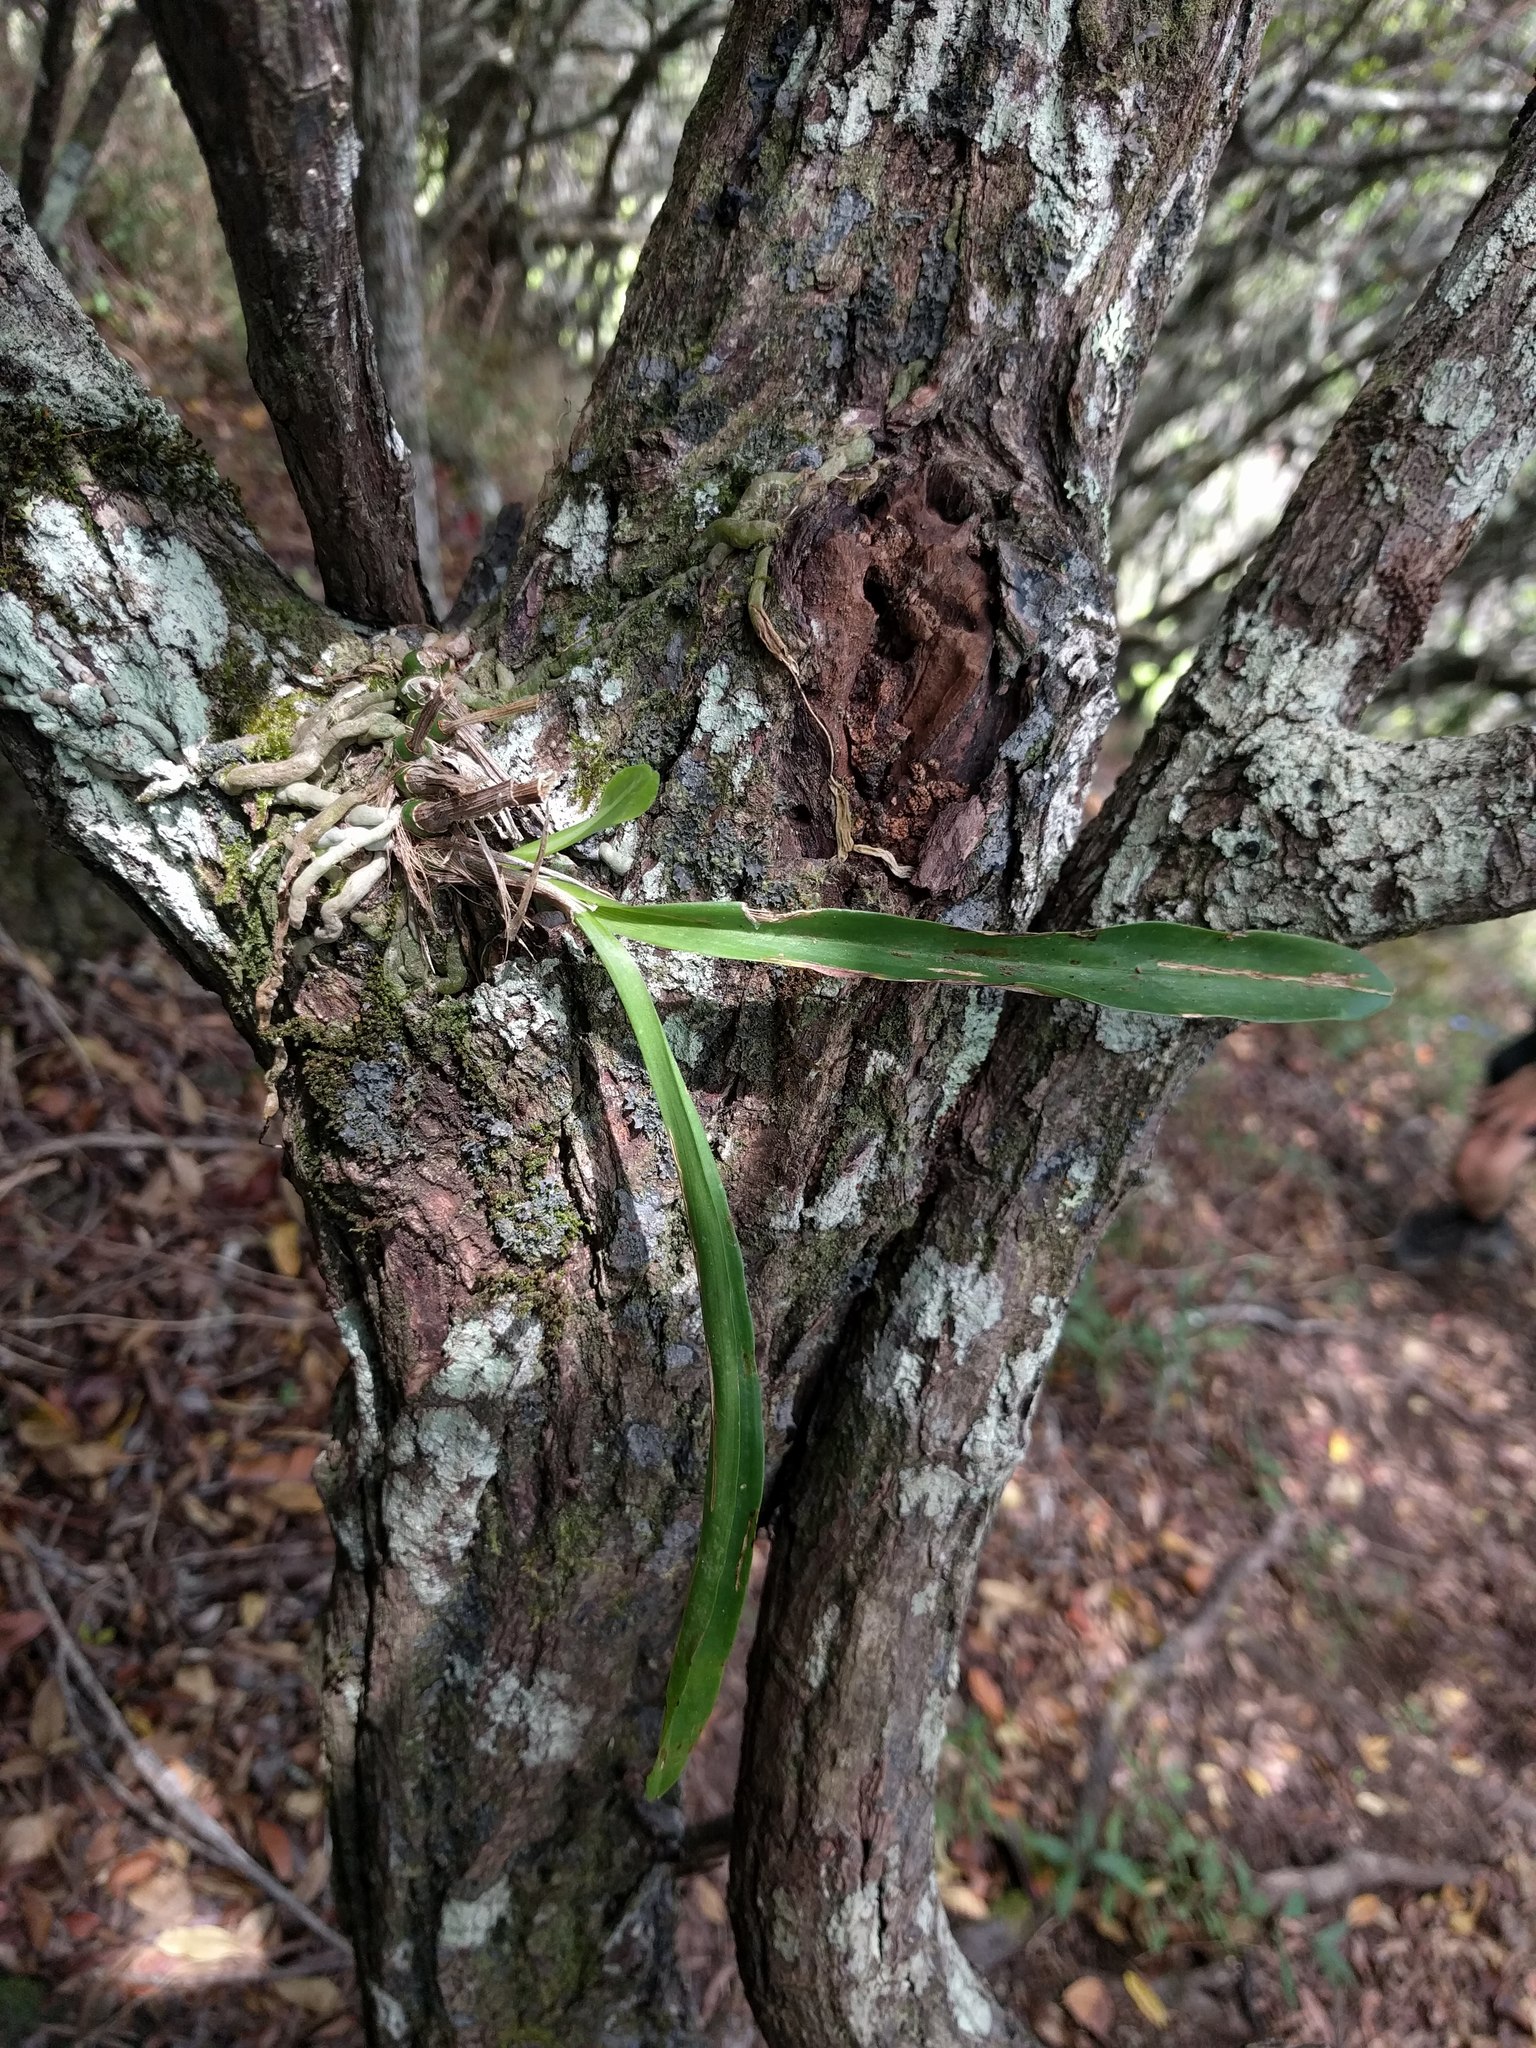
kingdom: Plantae
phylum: Tracheophyta
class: Liliopsida
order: Asparagales
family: Orchidaceae
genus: Polystachya
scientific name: Polystachya concreta
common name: Greater yellowspike orchid
